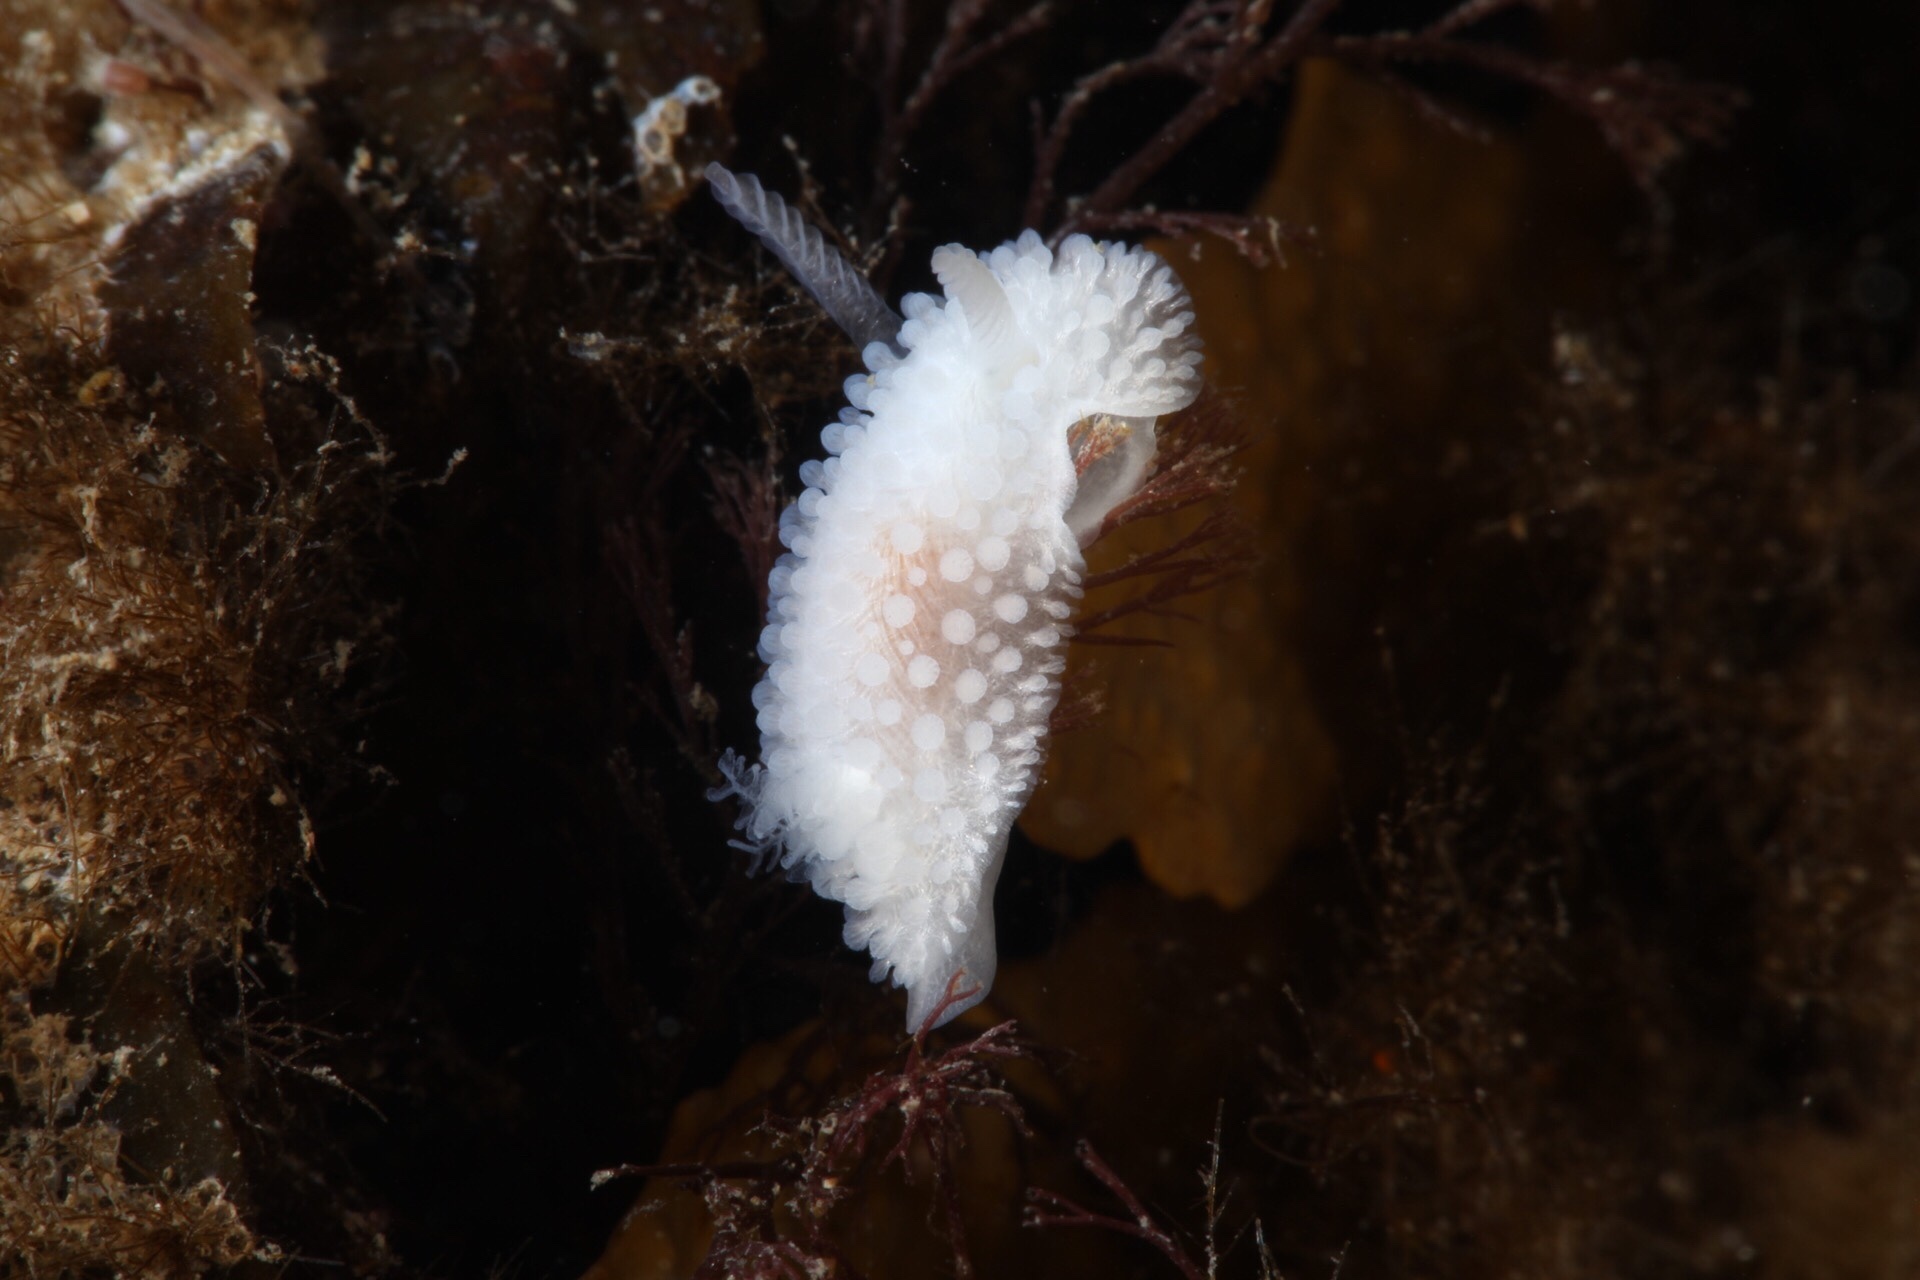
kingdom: Animalia
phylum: Mollusca
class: Gastropoda
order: Nudibranchia
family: Onchidorididae
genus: Onchidoris
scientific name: Onchidoris muricata
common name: Rough doris
